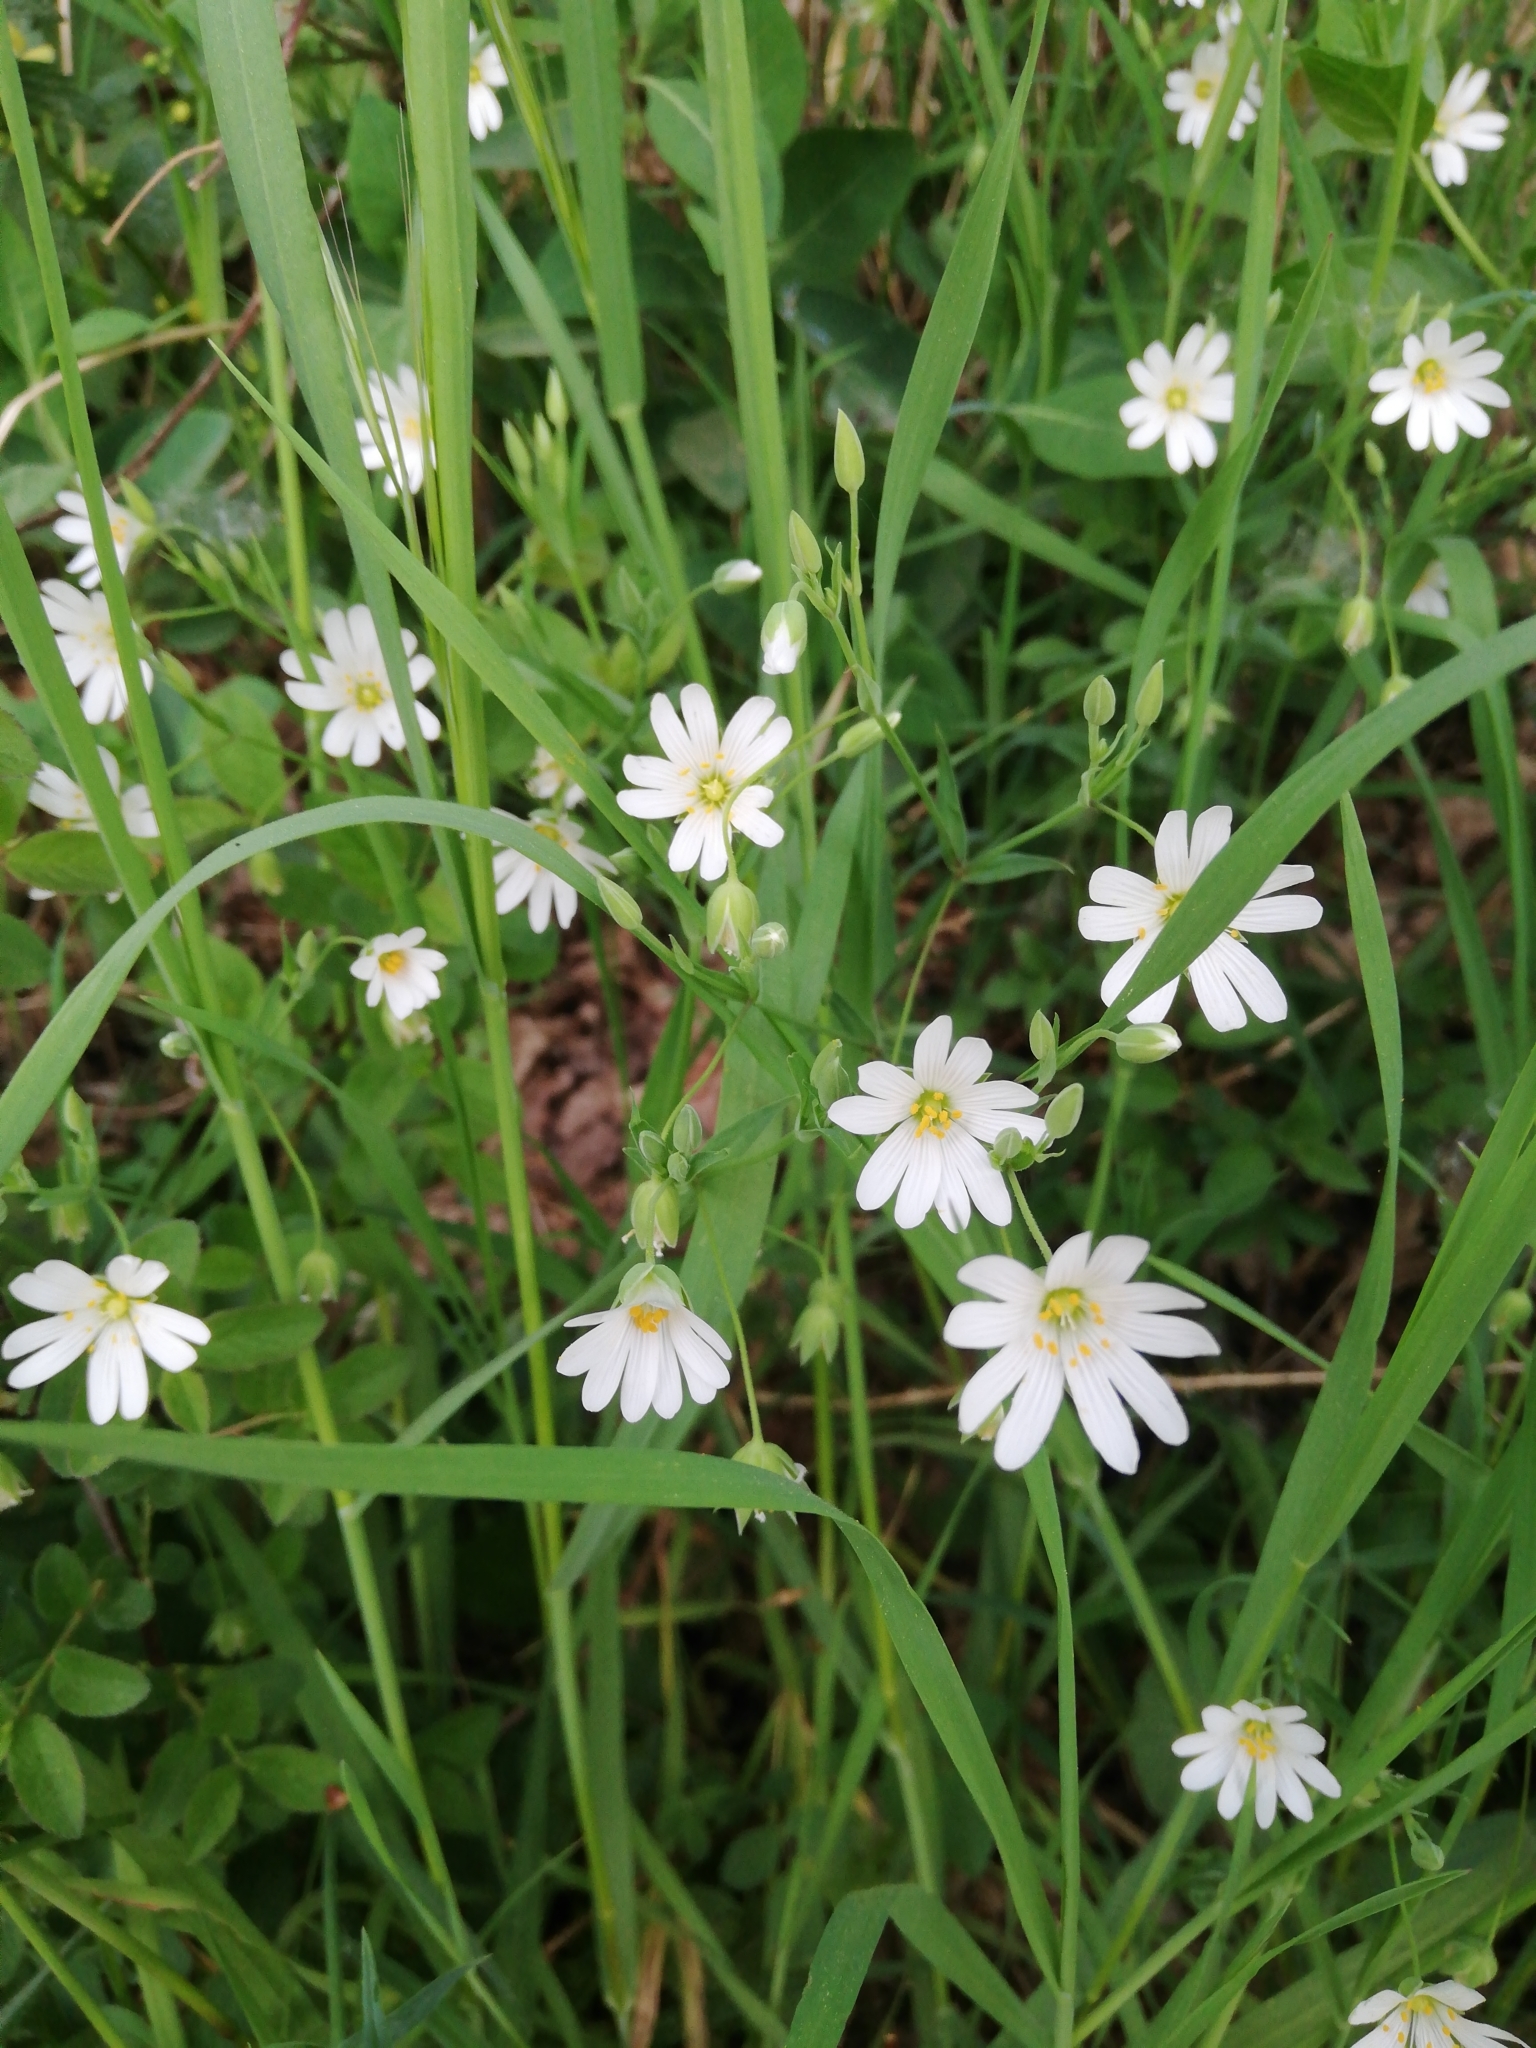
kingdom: Plantae
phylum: Tracheophyta
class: Magnoliopsida
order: Caryophyllales
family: Caryophyllaceae
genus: Rabelera
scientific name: Rabelera holostea
